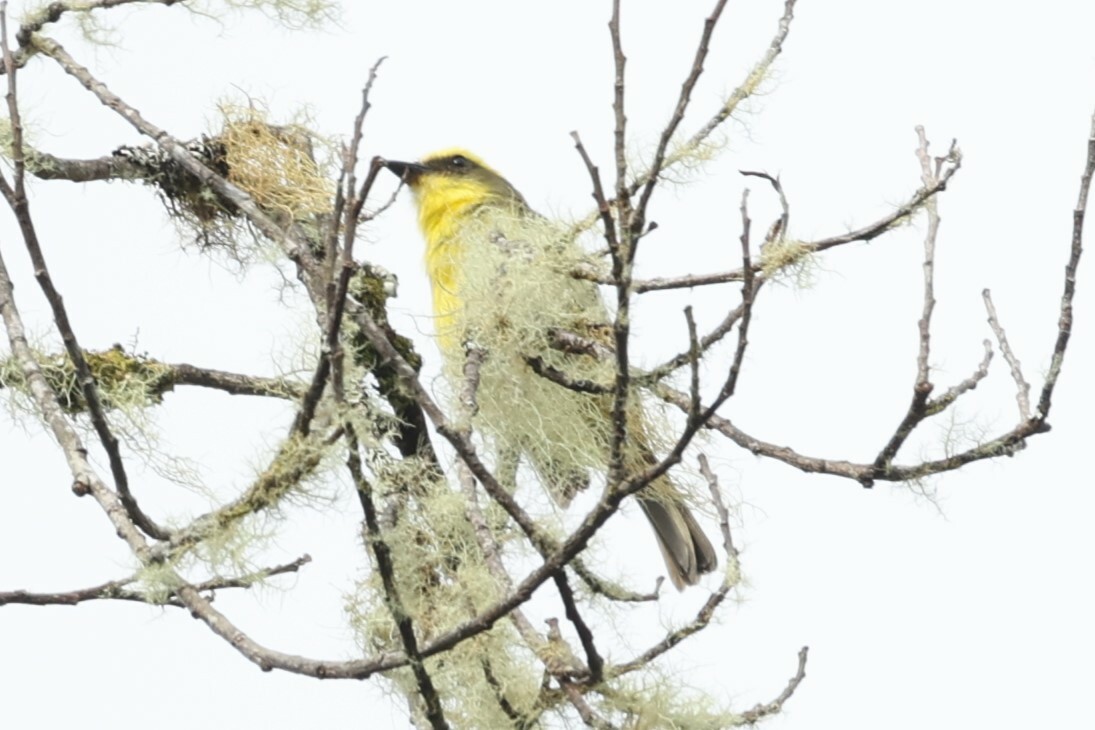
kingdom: Animalia
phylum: Chordata
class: Aves
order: Passeriformes
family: Tyrannidae
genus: Conopias
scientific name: Conopias cinchoneti
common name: Lemon-browed flycatcher
